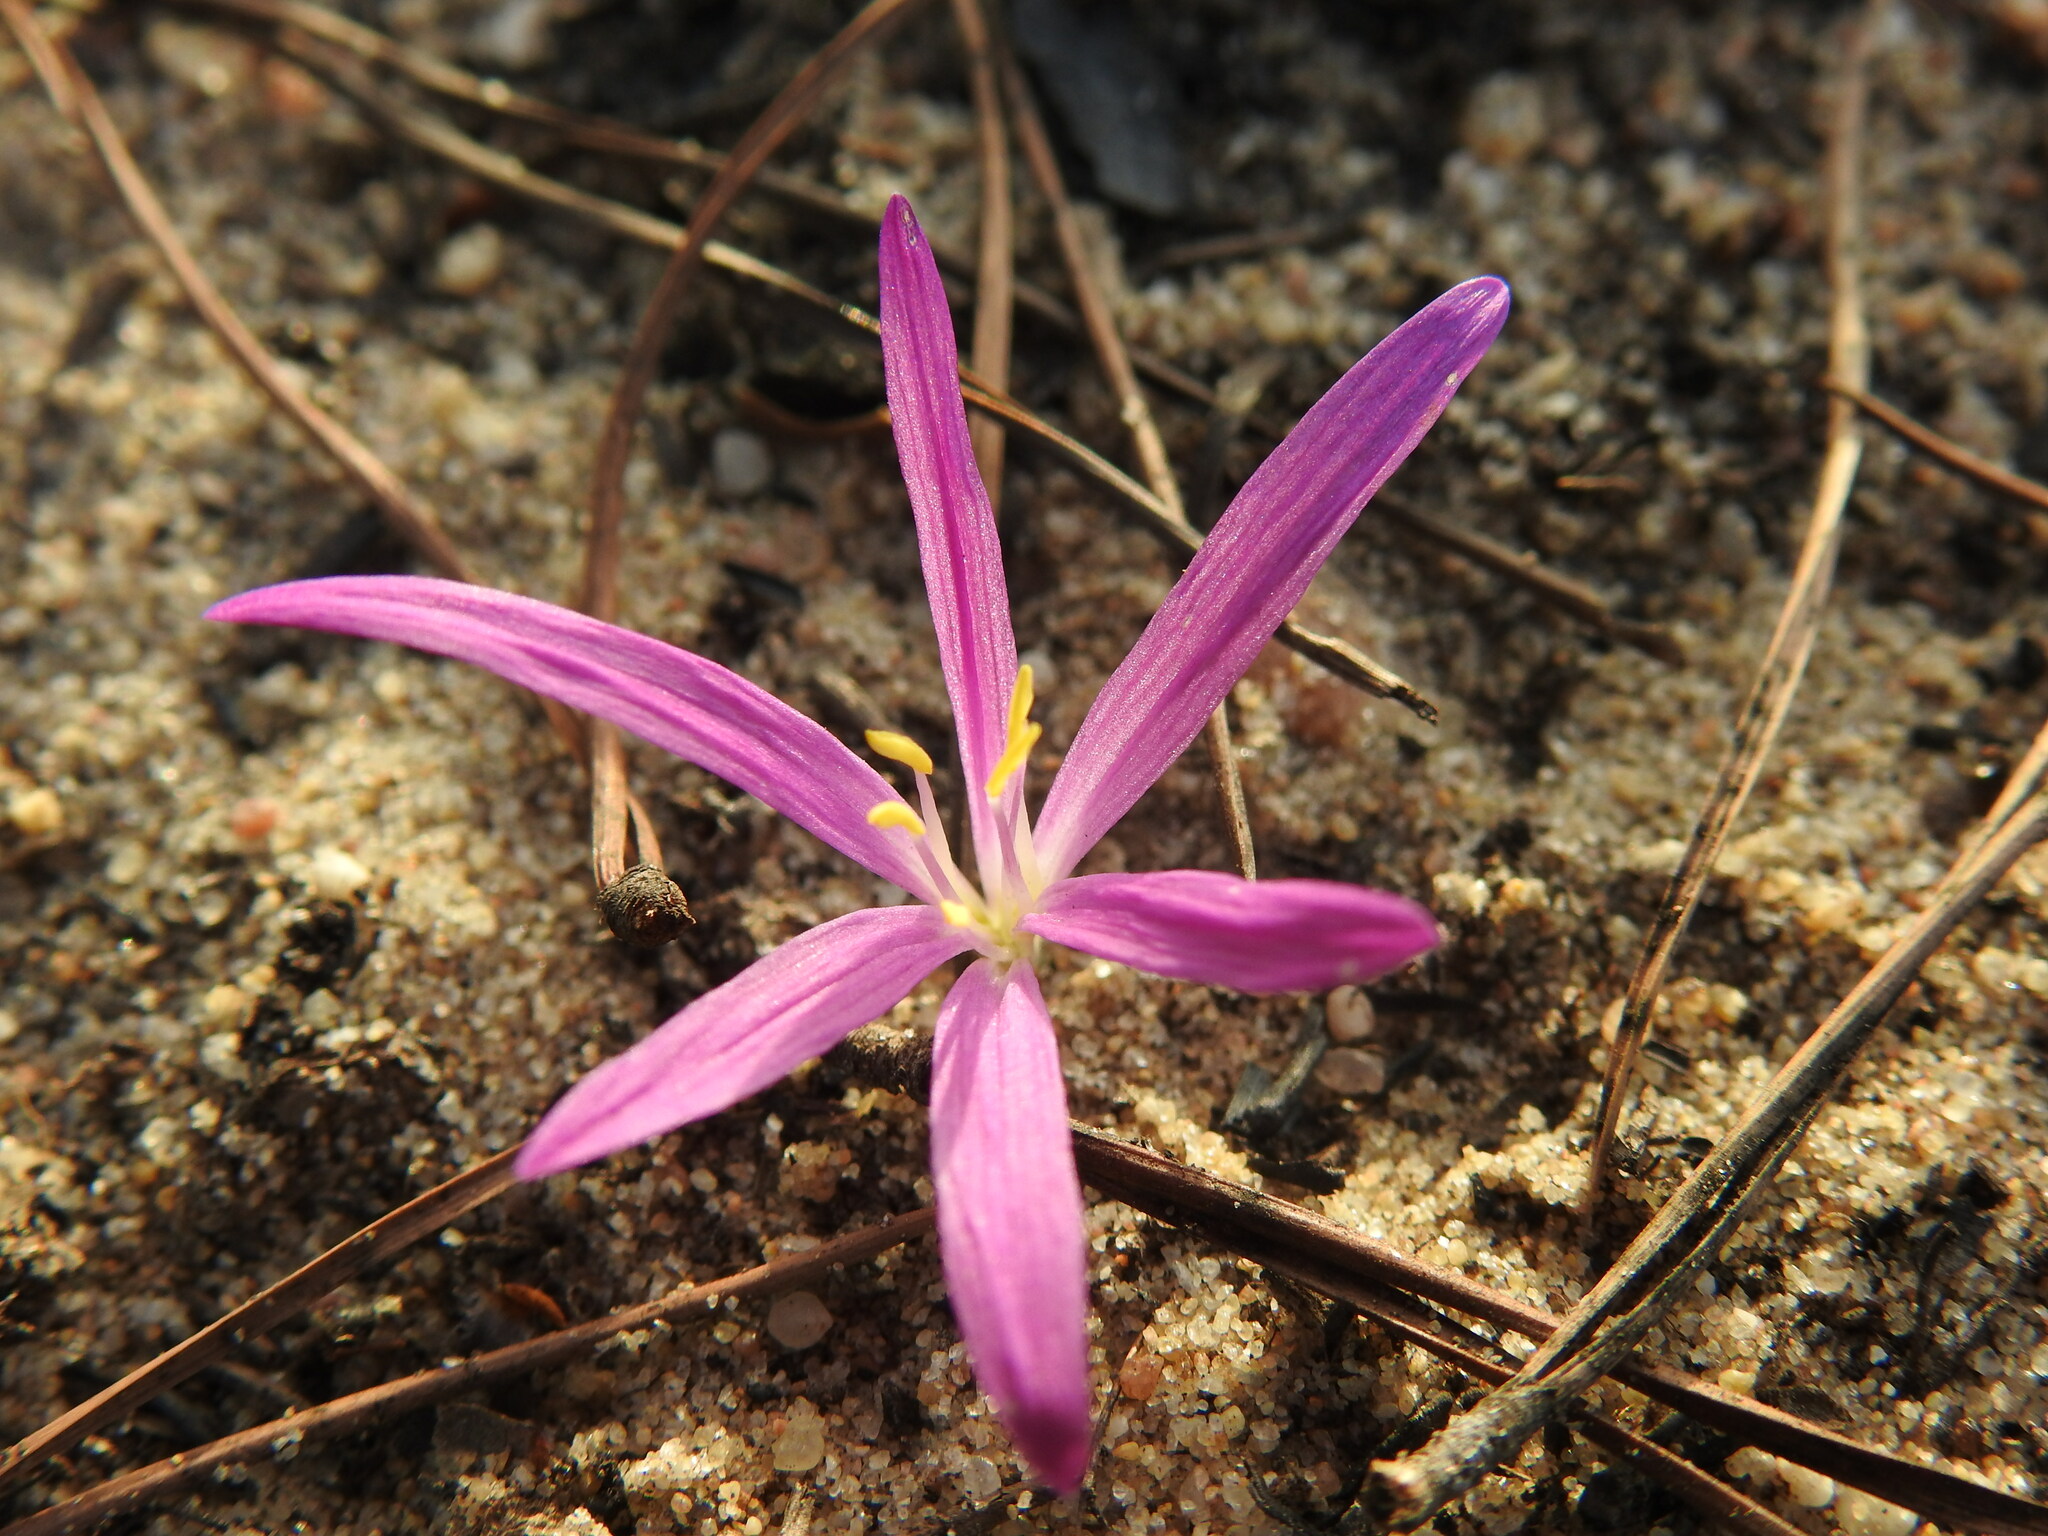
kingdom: Plantae
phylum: Tracheophyta
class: Liliopsida
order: Liliales
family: Colchicaceae
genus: Colchicum
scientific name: Colchicum filifolium
